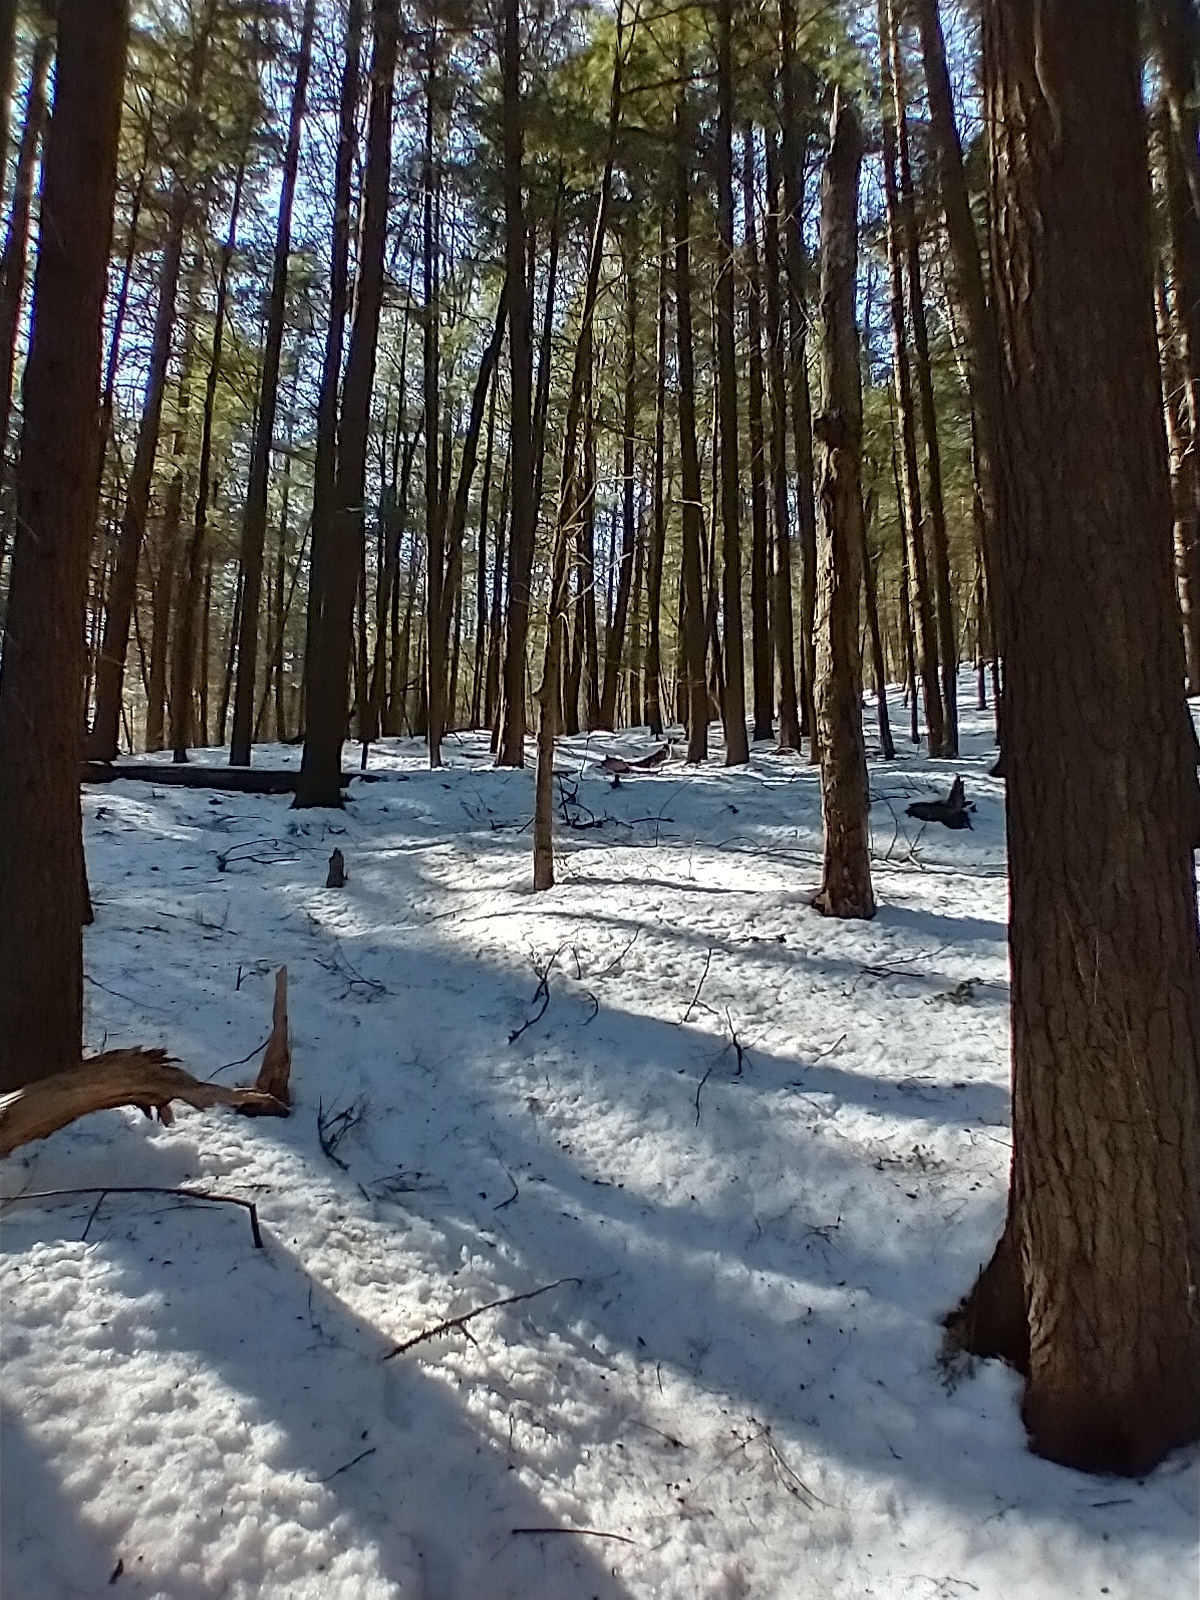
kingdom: Plantae
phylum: Tracheophyta
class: Pinopsida
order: Pinales
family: Pinaceae
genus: Tsuga
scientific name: Tsuga canadensis
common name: Eastern hemlock
